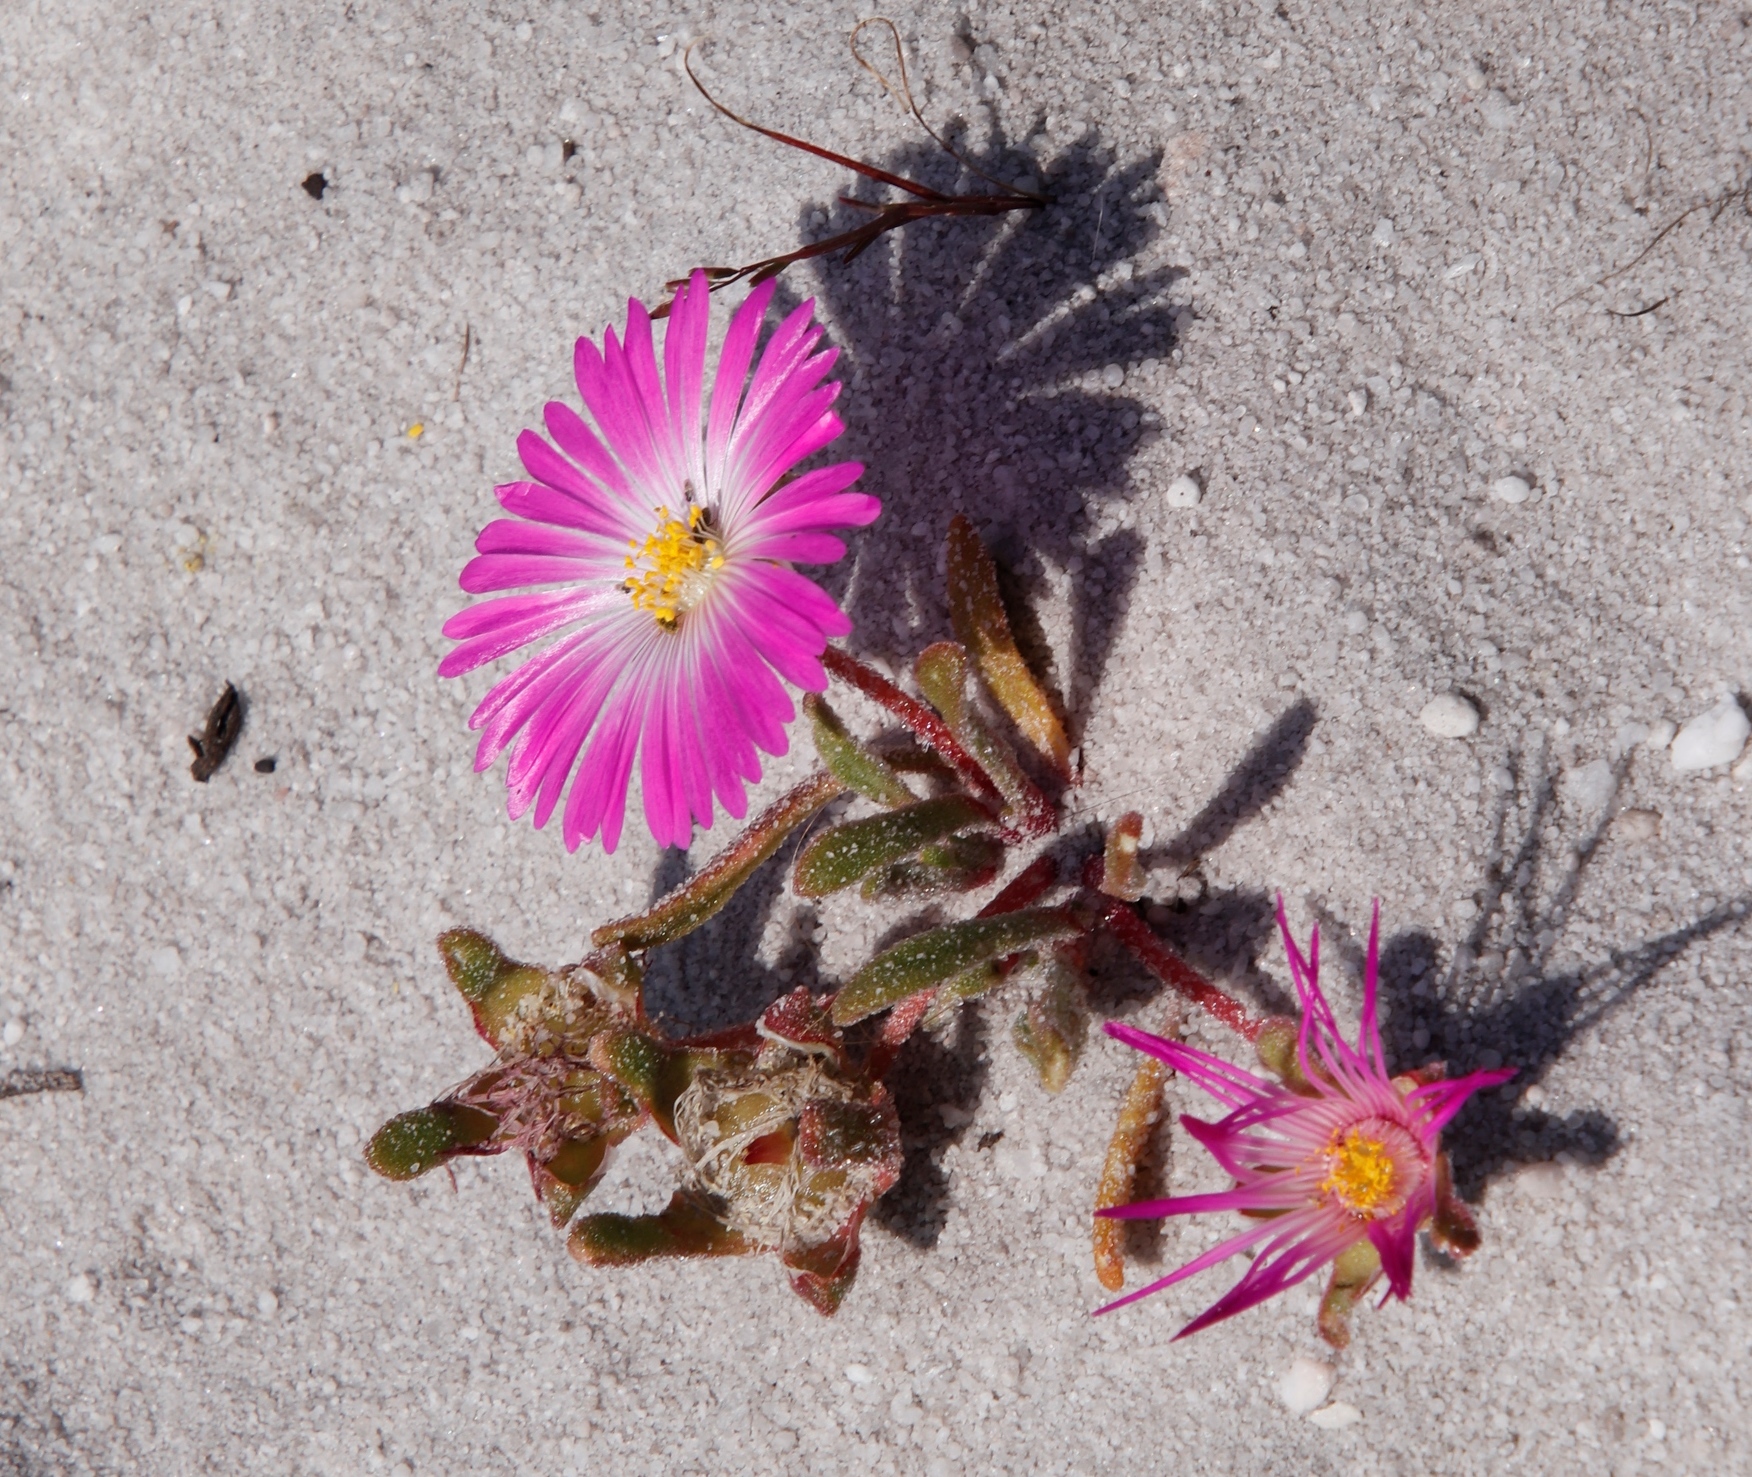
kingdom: Plantae
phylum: Tracheophyta
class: Magnoliopsida
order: Caryophyllales
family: Aizoaceae
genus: Cleretum
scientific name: Cleretum bellidiforme
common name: Livingstone daisy
